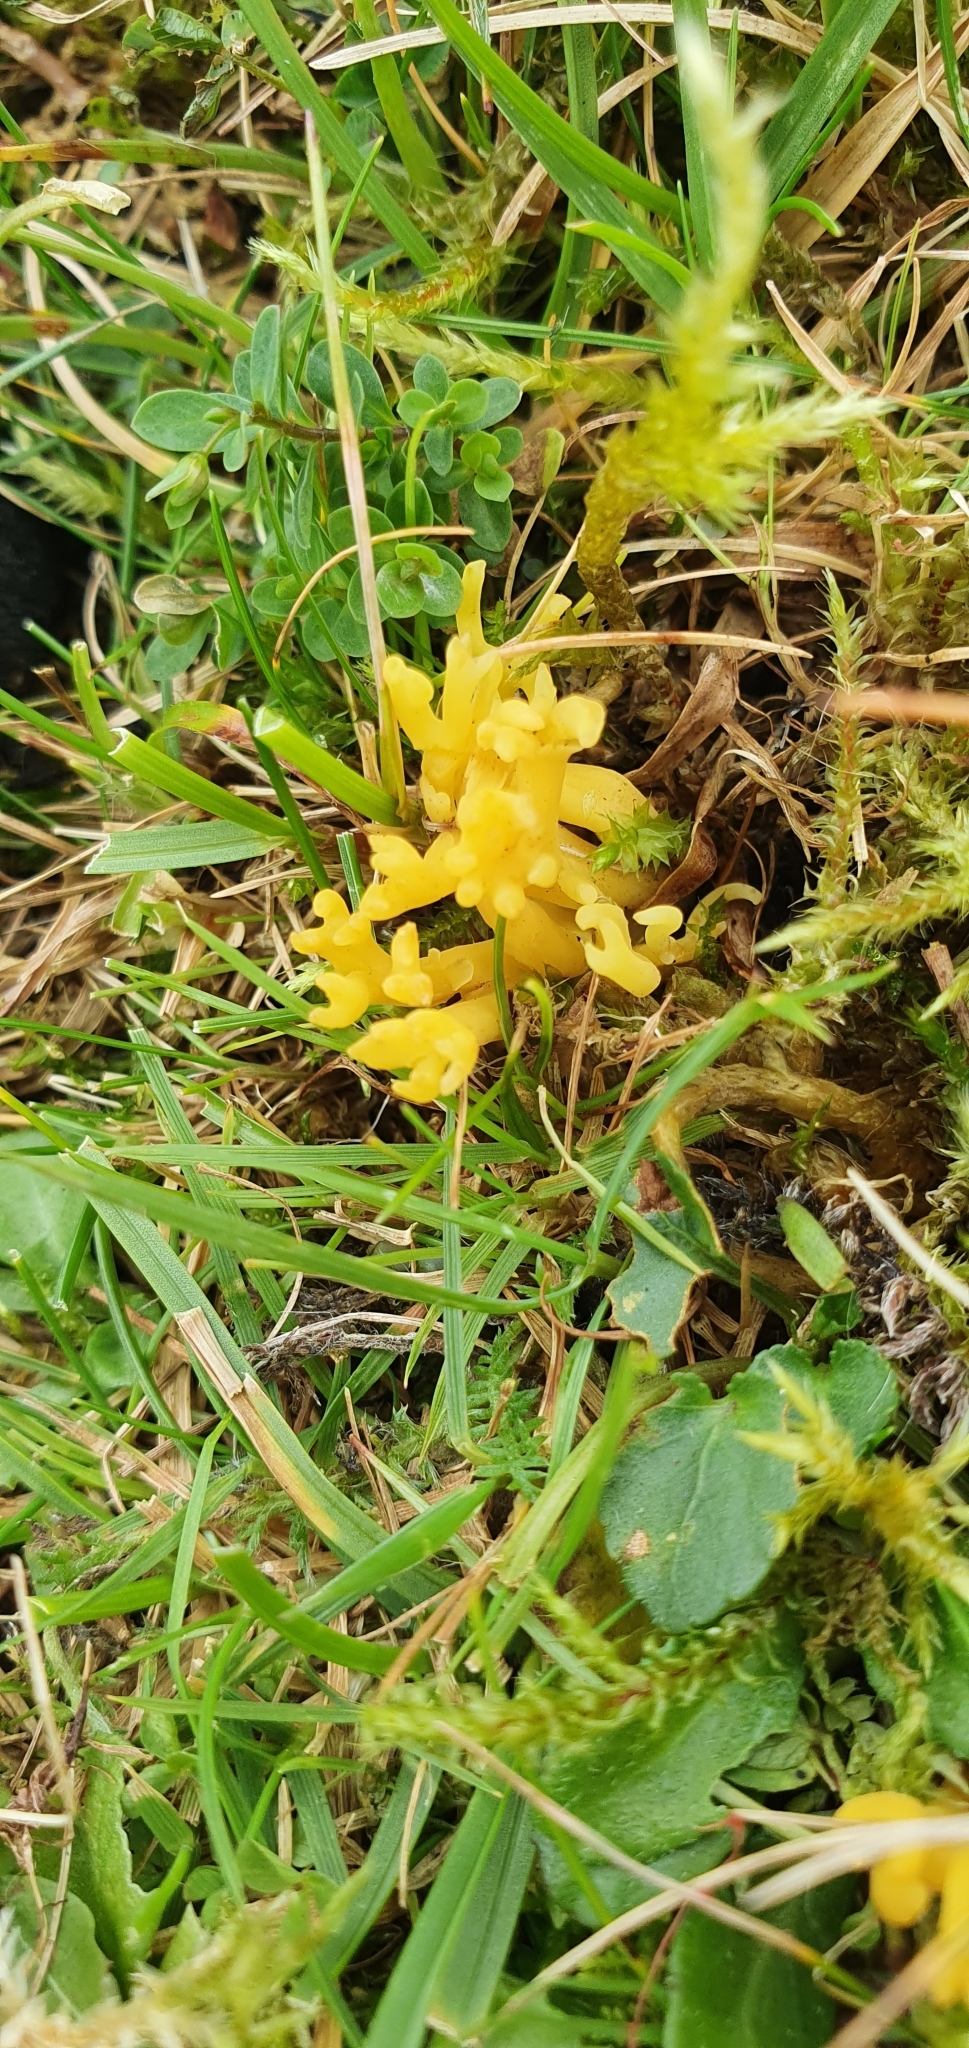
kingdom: Fungi
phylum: Basidiomycota
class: Agaricomycetes
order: Agaricales
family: Clavariaceae
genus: Clavulinopsis
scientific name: Clavulinopsis corniculata
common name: Meadow coral
